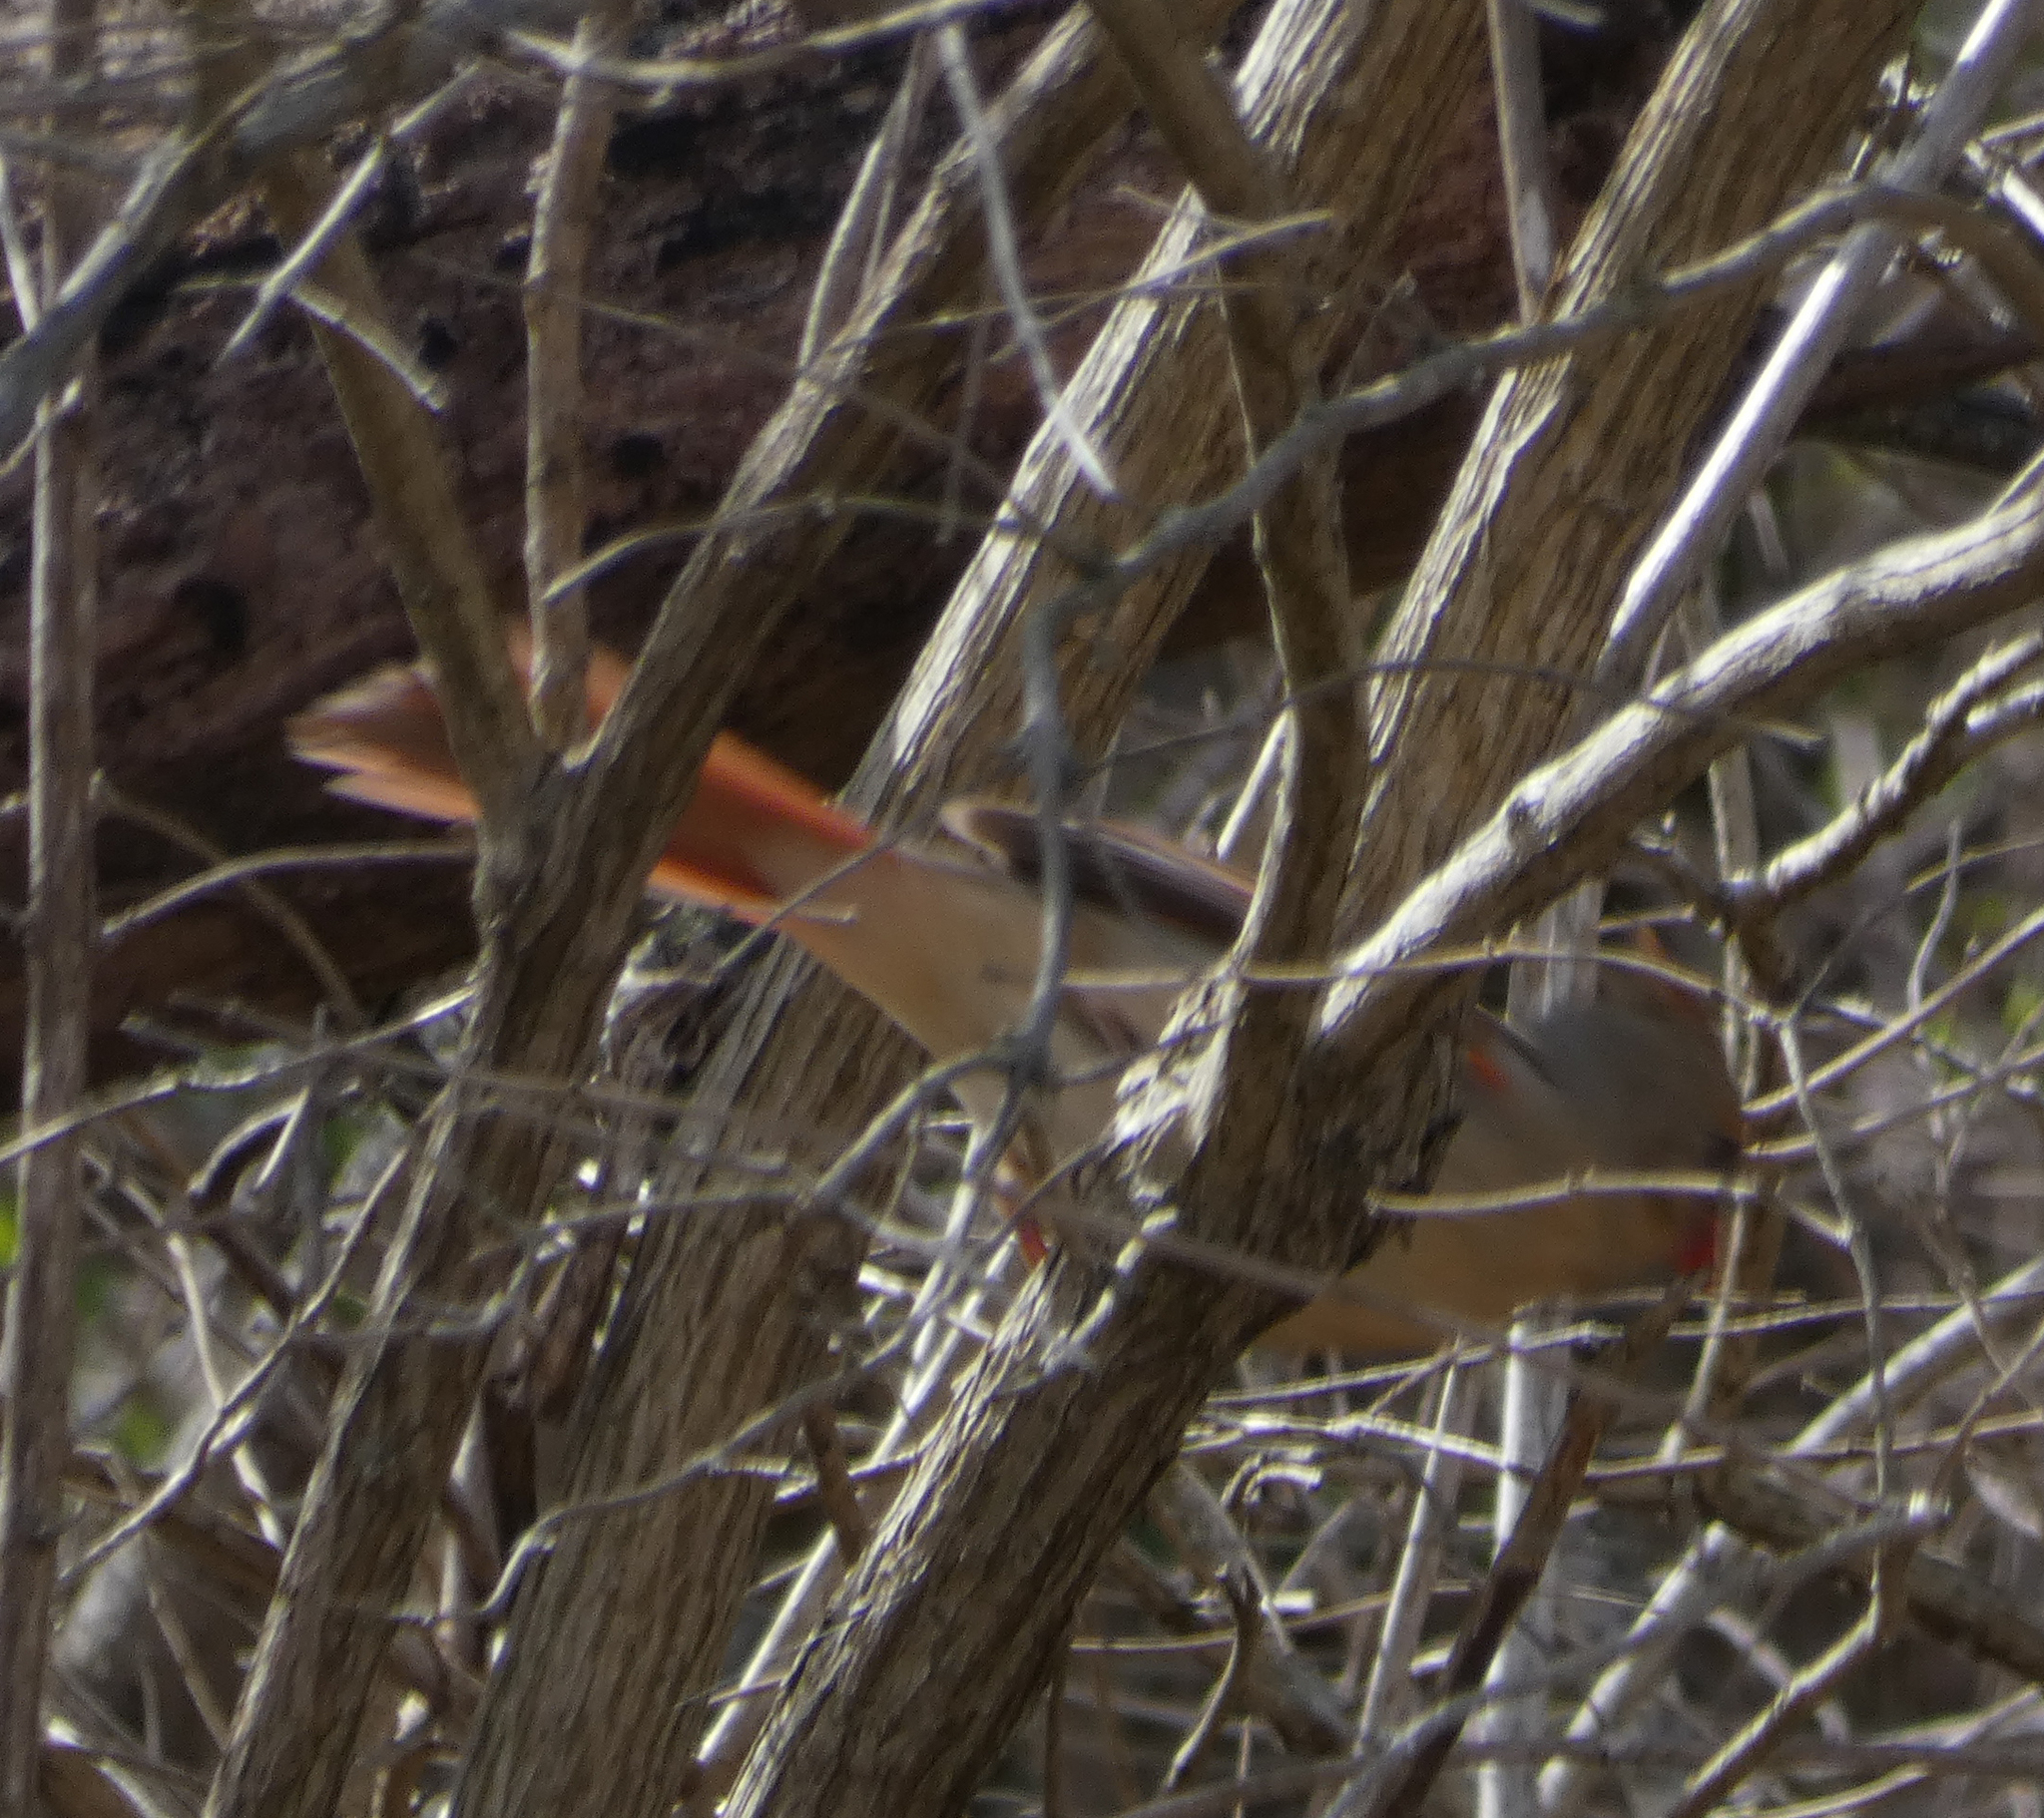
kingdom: Animalia
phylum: Chordata
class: Aves
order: Passeriformes
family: Cardinalidae
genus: Cardinalis
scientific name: Cardinalis cardinalis
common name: Northern cardinal
